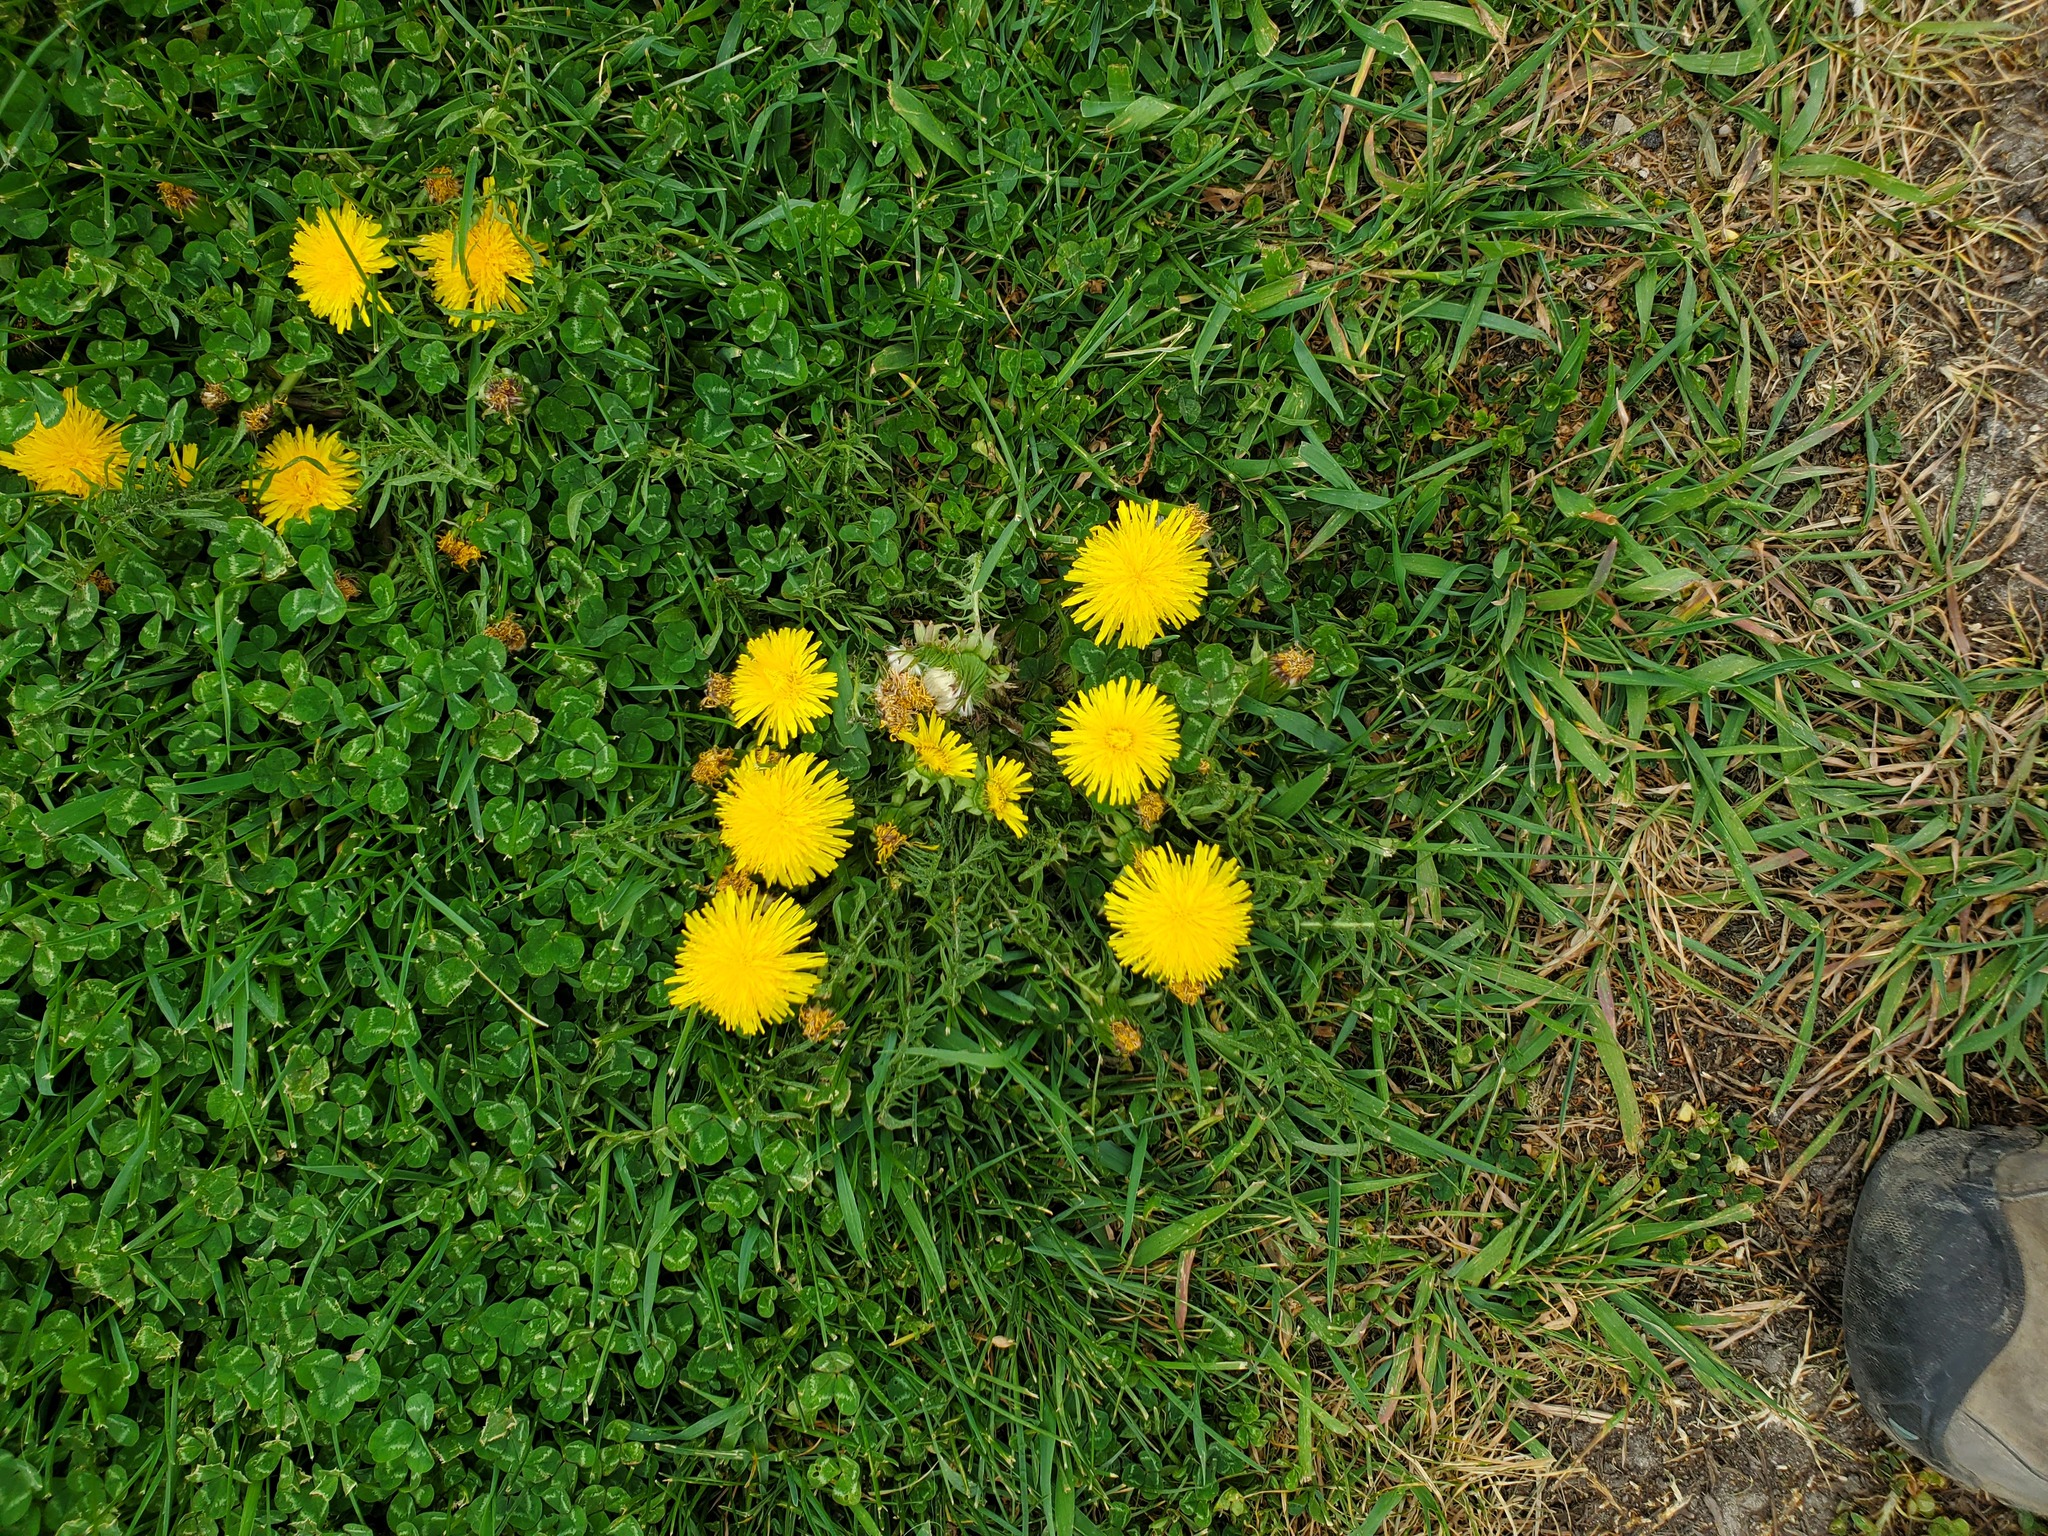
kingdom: Plantae
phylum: Tracheophyta
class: Magnoliopsida
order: Asterales
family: Asteraceae
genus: Taraxacum
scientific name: Taraxacum officinale
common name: Common dandelion
